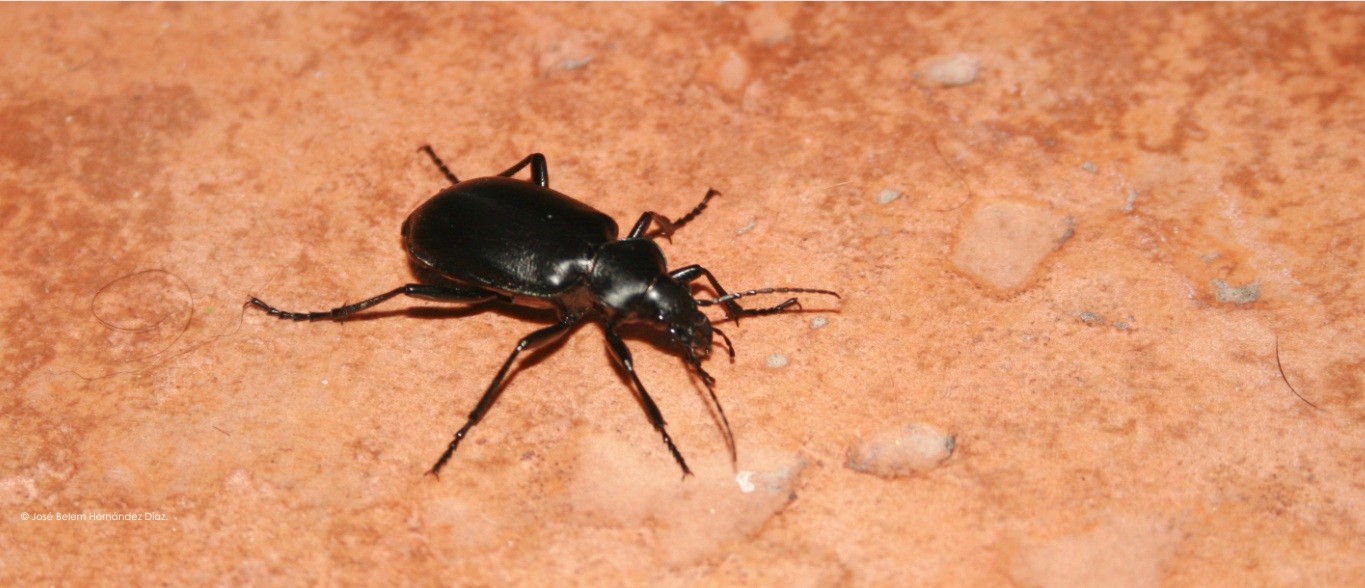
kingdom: Animalia
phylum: Arthropoda
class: Insecta
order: Coleoptera
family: Carabidae
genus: Calosoma
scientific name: Calosoma peregrinator
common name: Ground beetle
